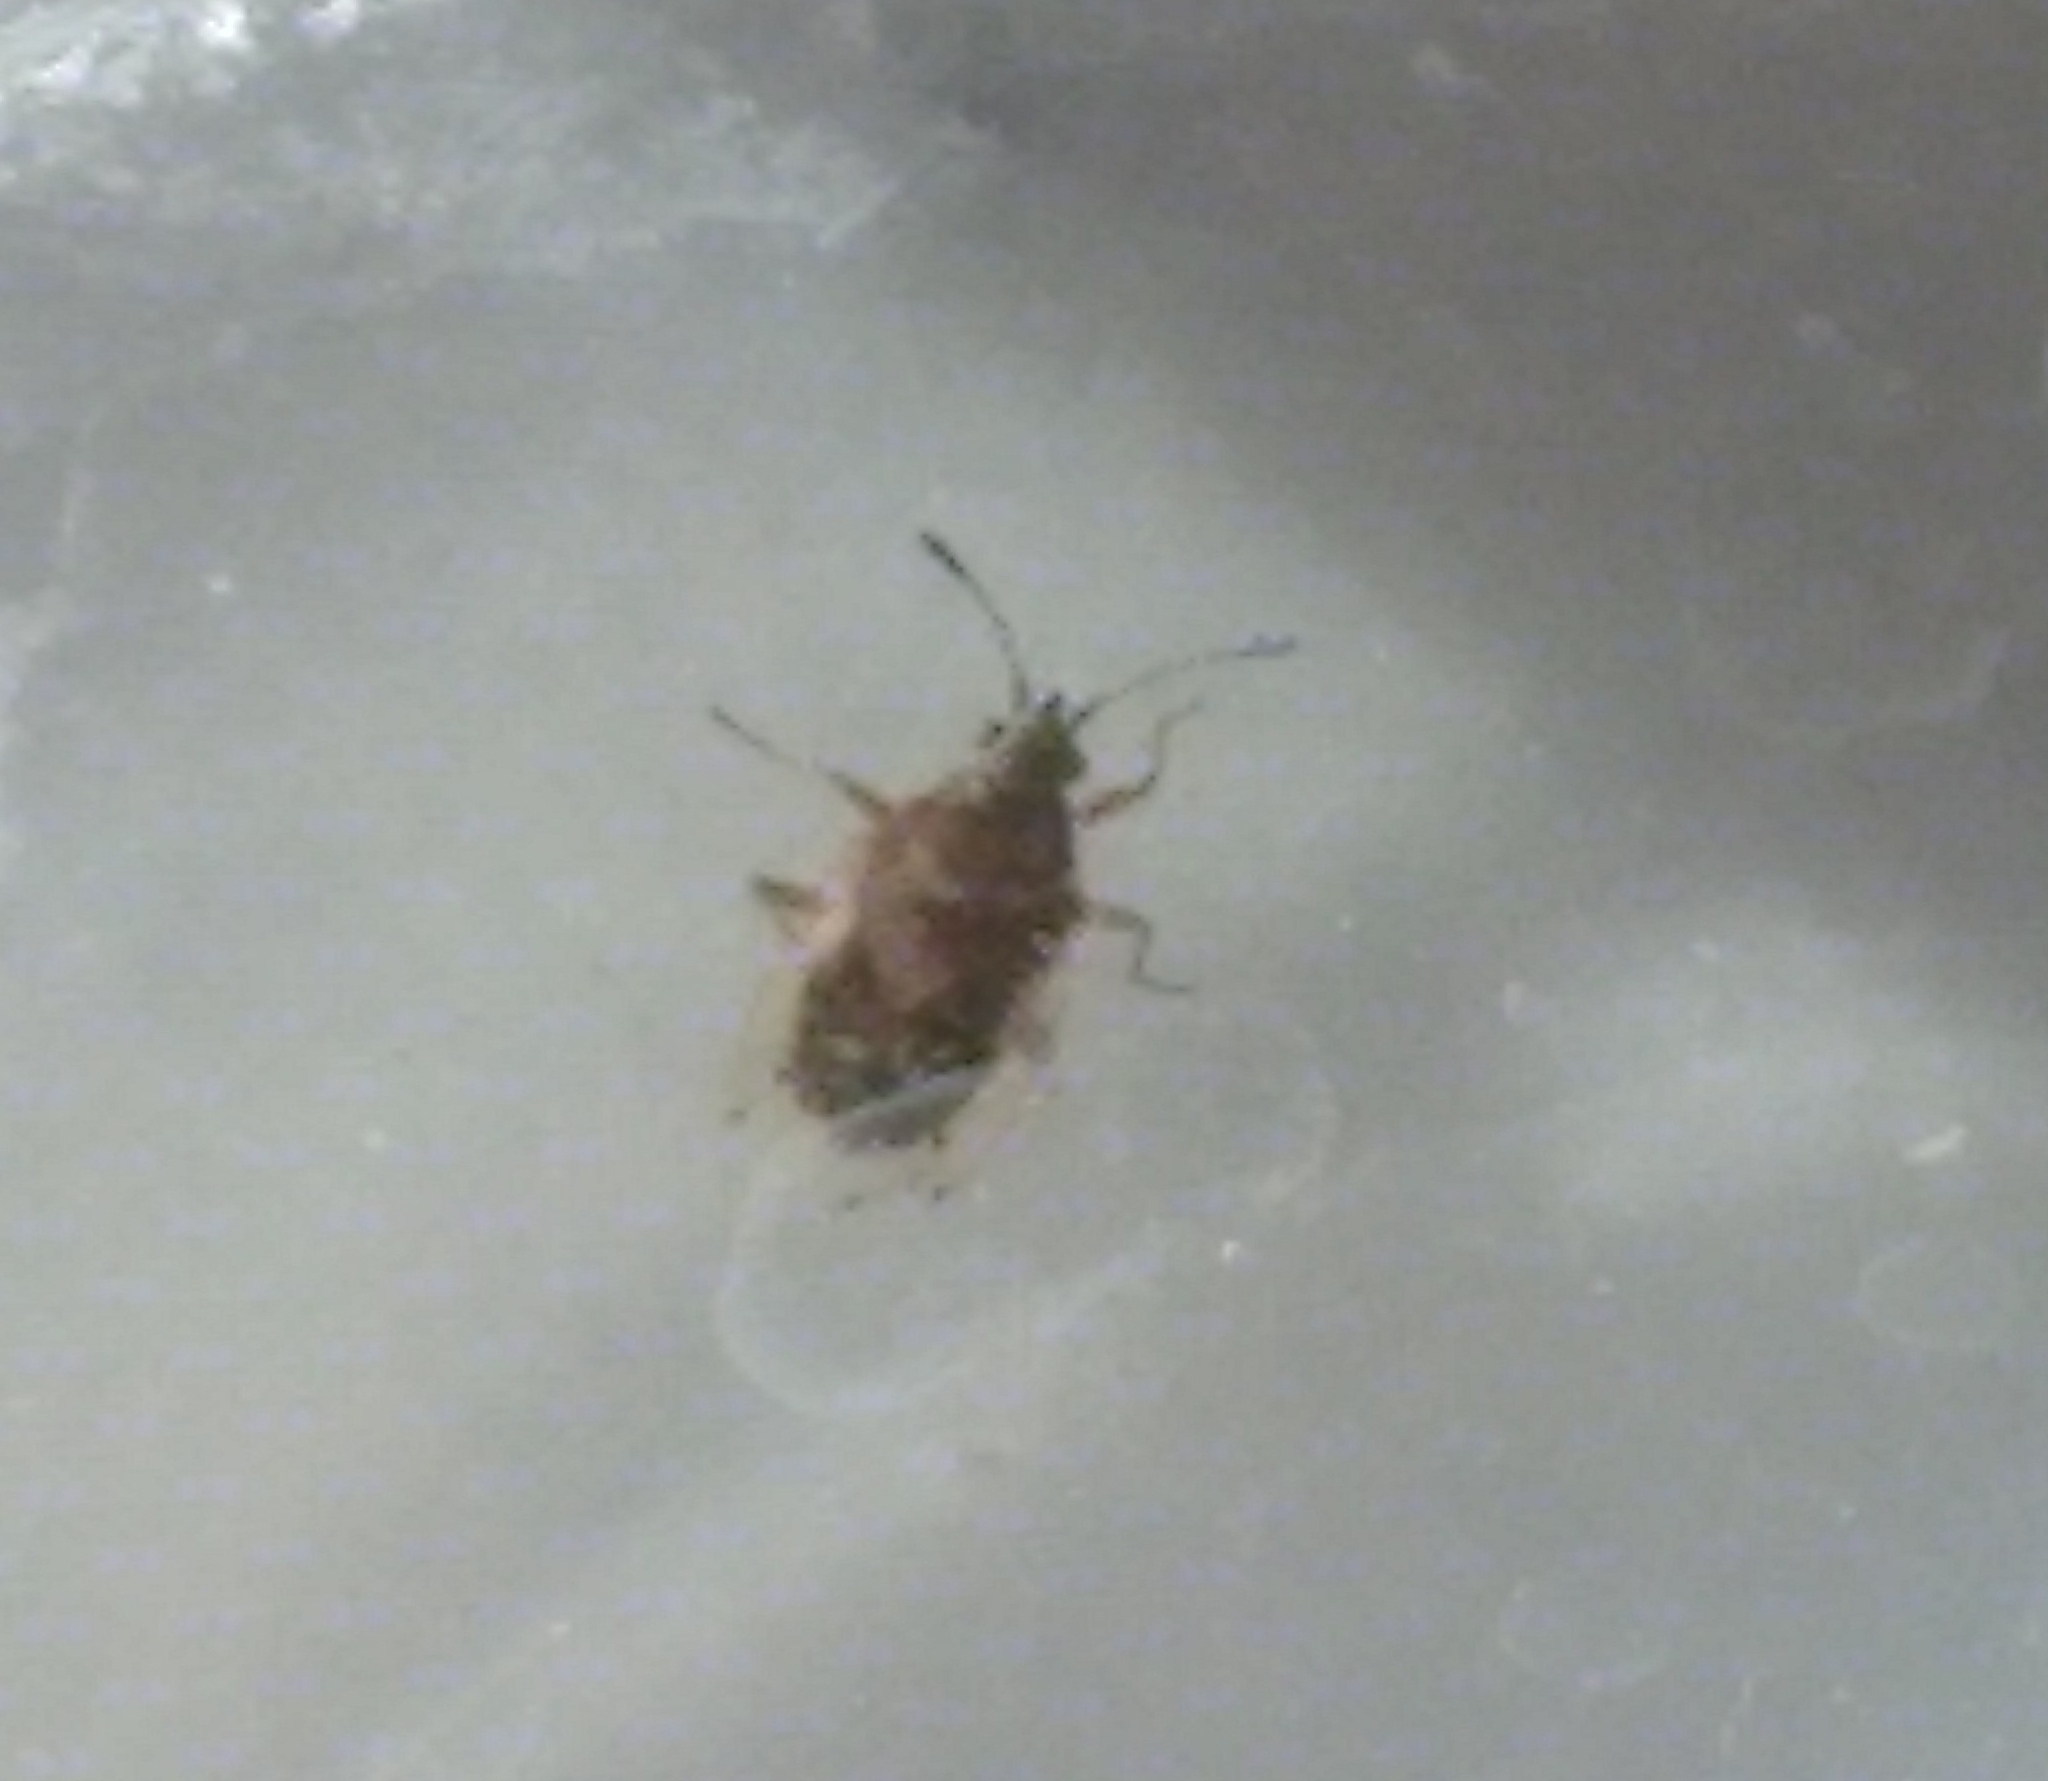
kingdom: Animalia
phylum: Arthropoda
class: Insecta
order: Hemiptera
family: Lygaeidae
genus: Kleidocerys
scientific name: Kleidocerys resedae
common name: Birch catkin bug
